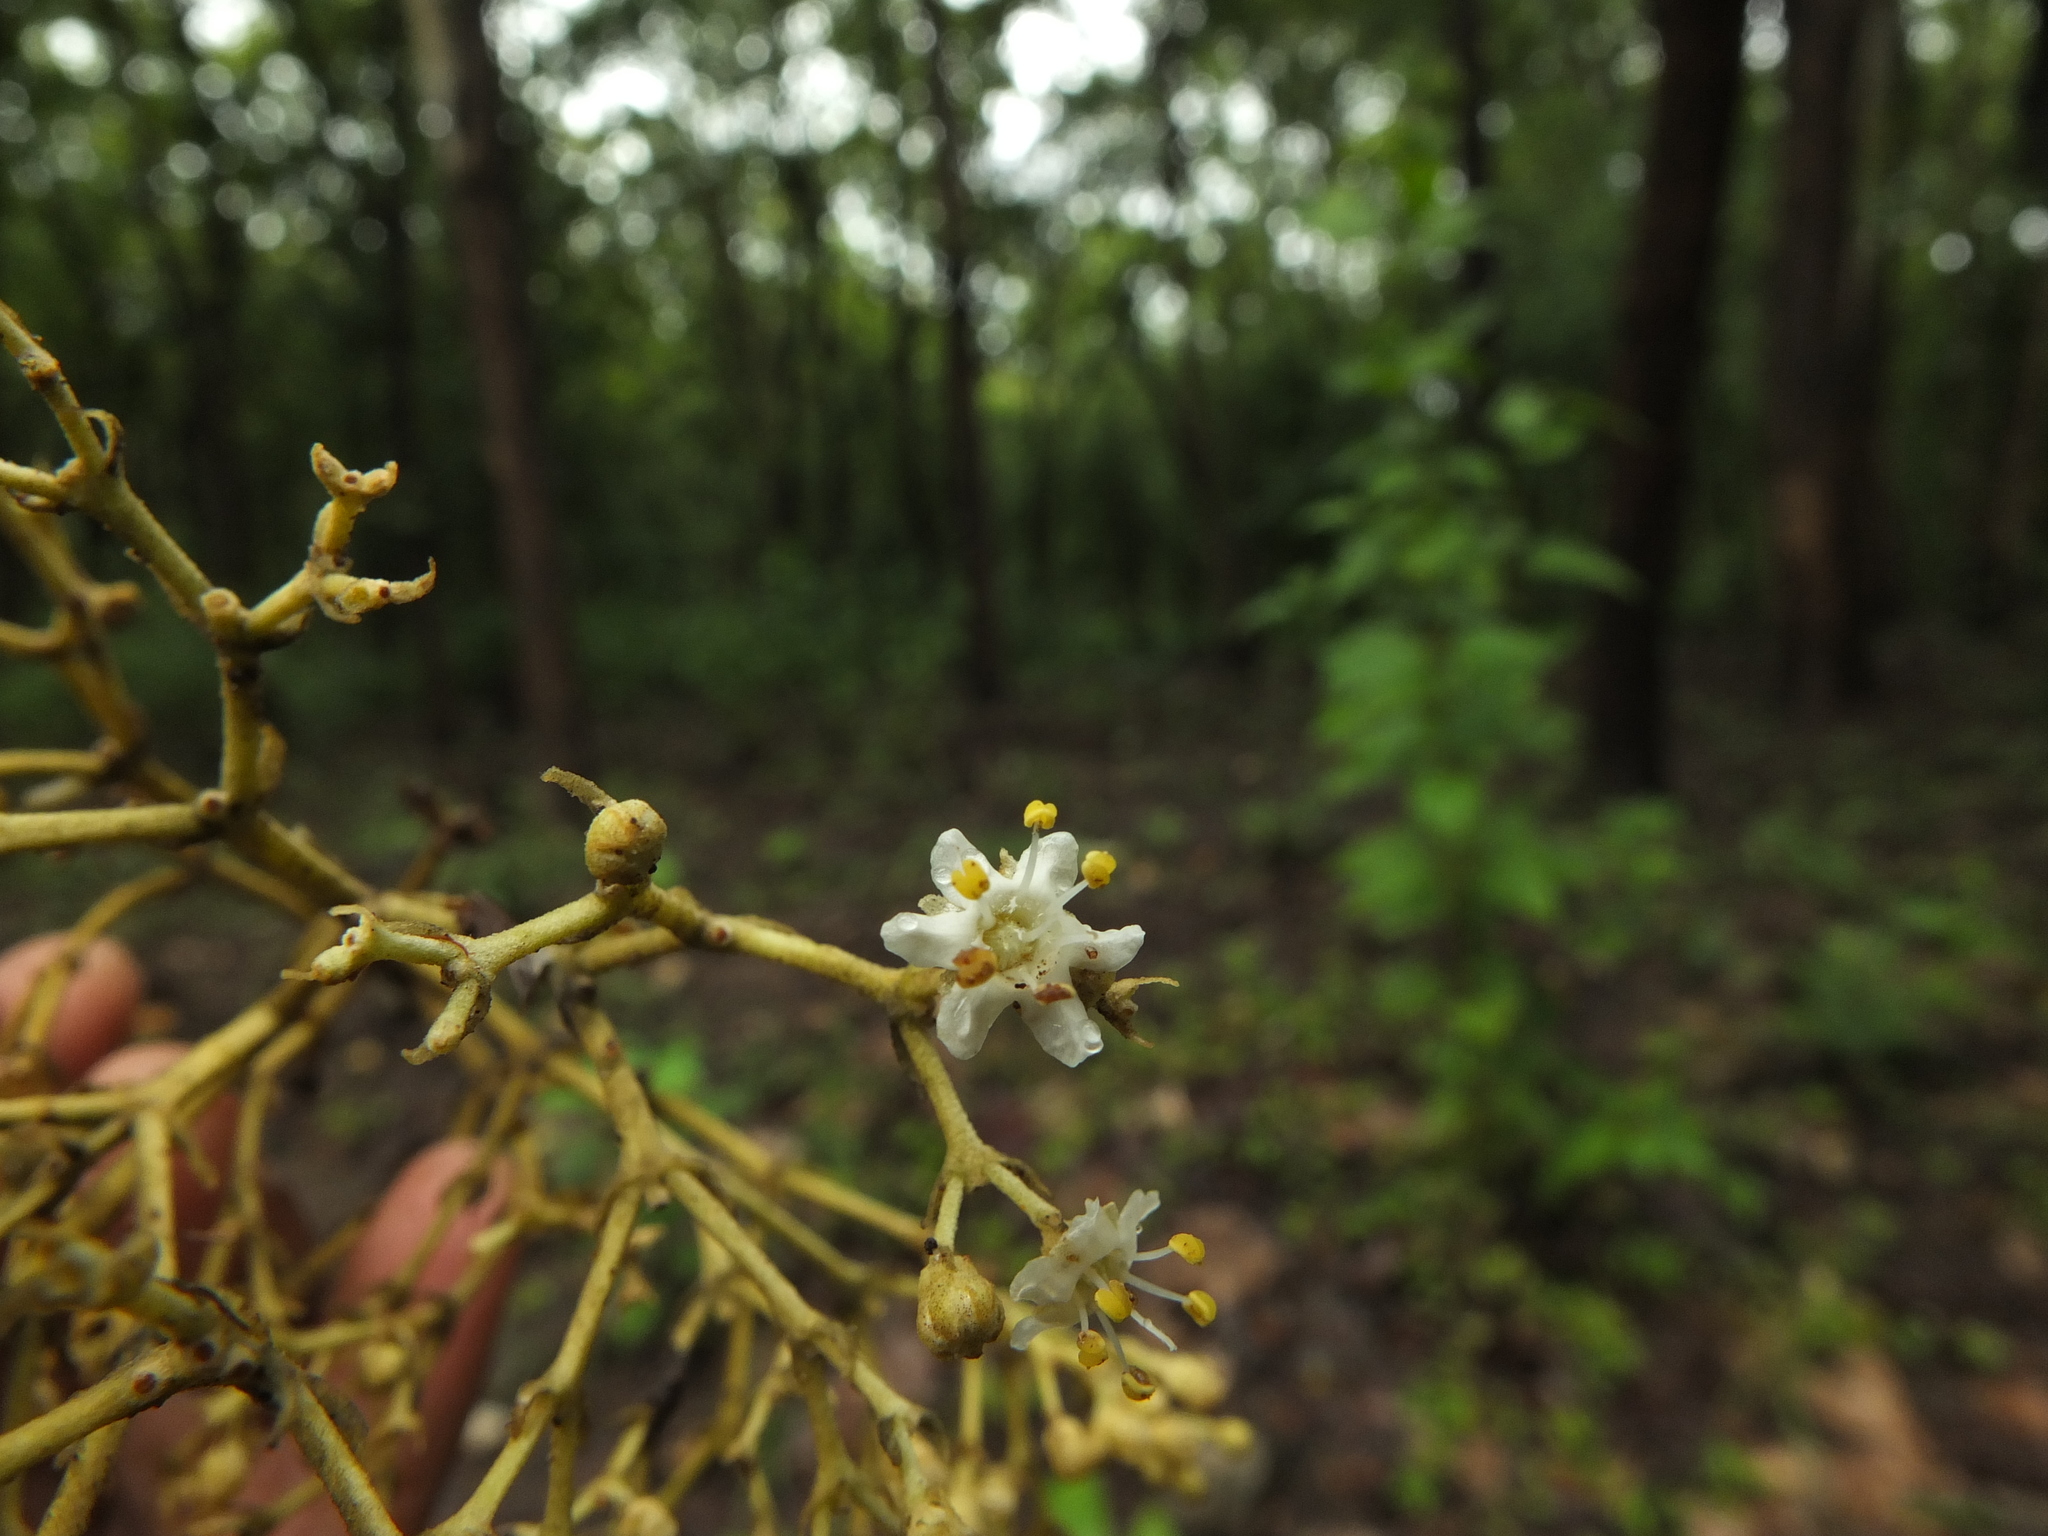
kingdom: Plantae
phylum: Tracheophyta
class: Magnoliopsida
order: Lamiales
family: Lamiaceae
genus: Tectona
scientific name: Tectona grandis
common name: Teak
